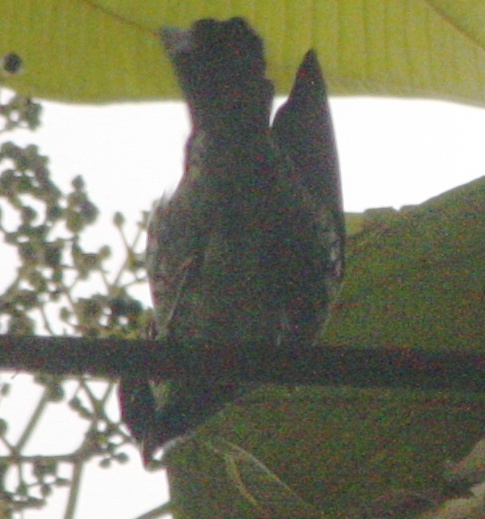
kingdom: Animalia
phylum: Chordata
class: Aves
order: Passeriformes
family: Thraupidae
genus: Tangara
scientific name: Tangara nigroviridis
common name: Beryl-spangled tanager
